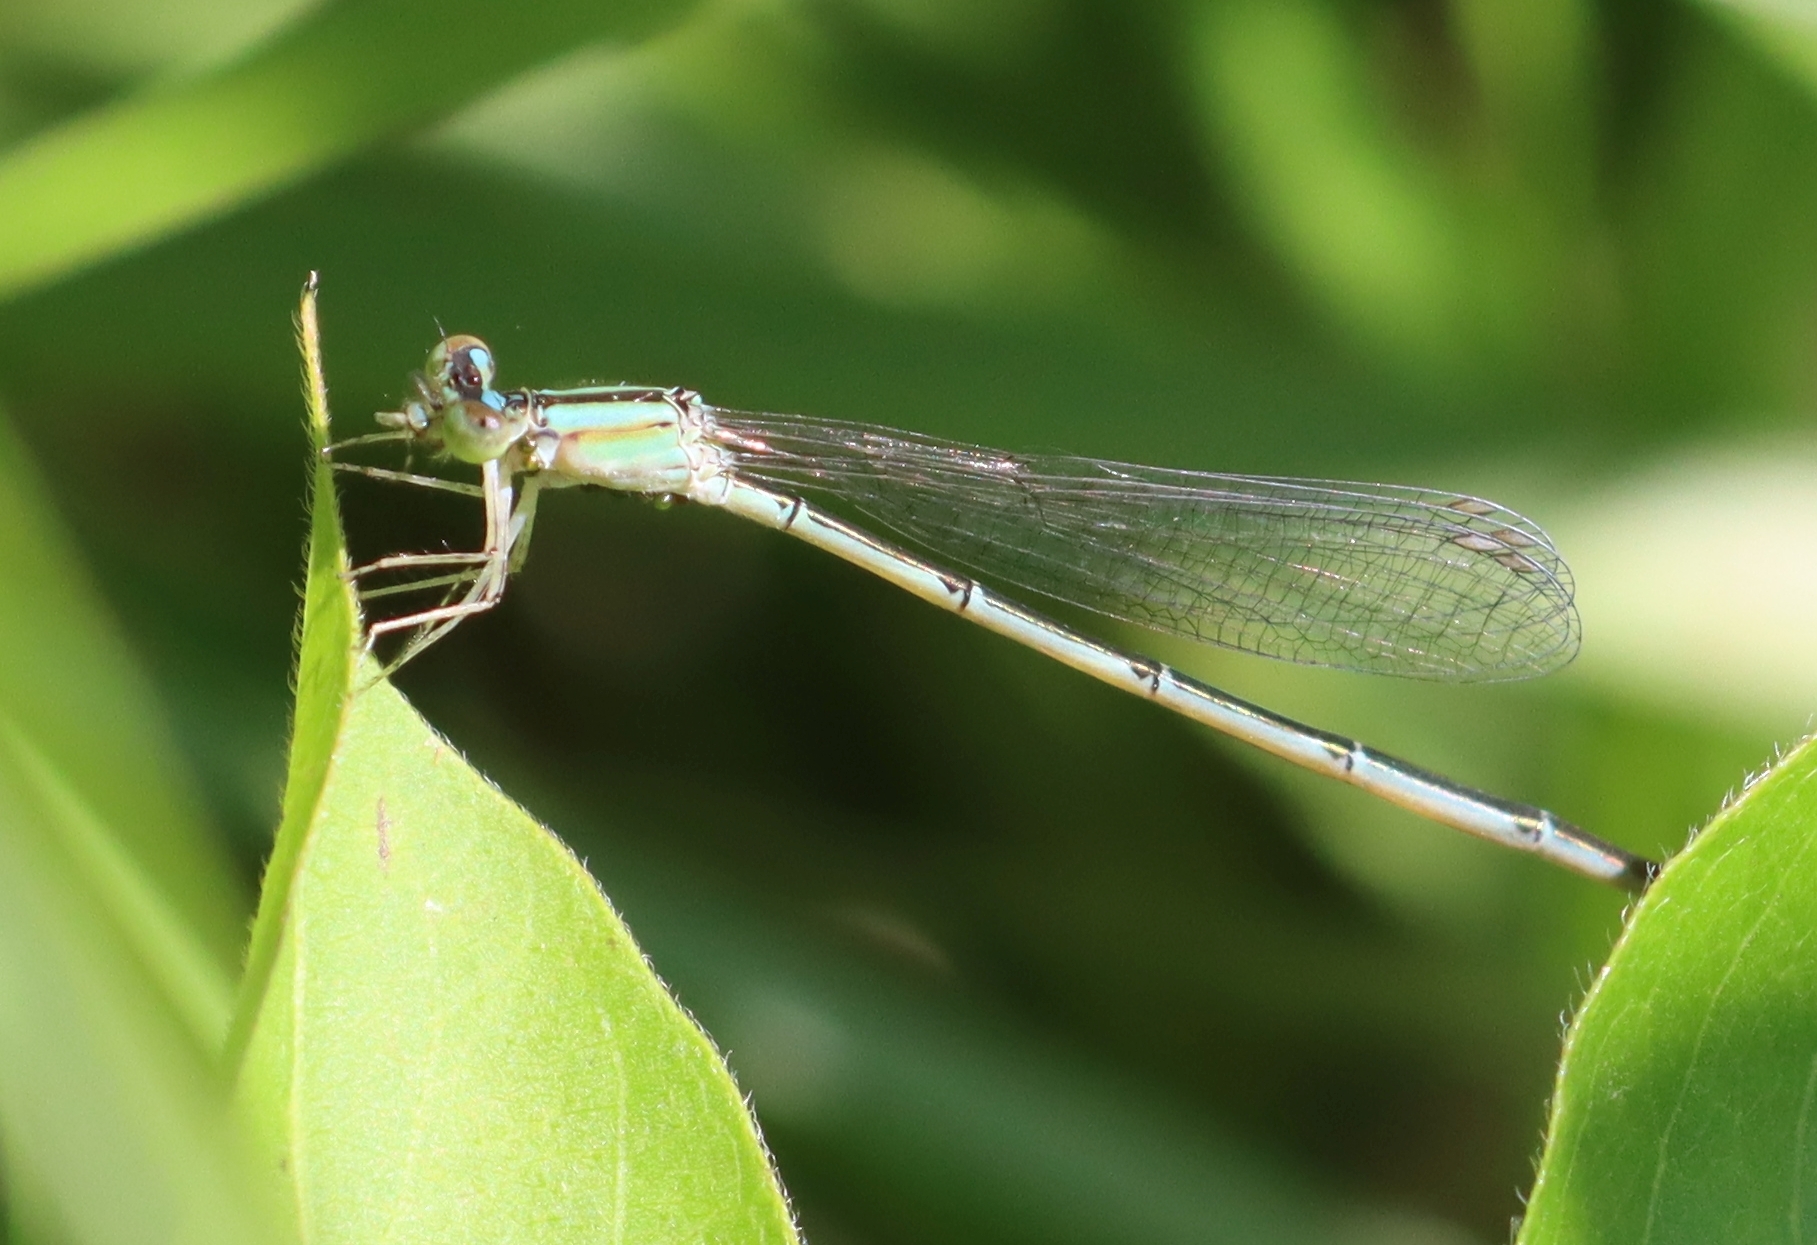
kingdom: Animalia
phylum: Arthropoda
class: Insecta
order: Odonata
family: Coenagrionidae
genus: Enallagma
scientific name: Enallagma vesperum
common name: Vesper bluet
